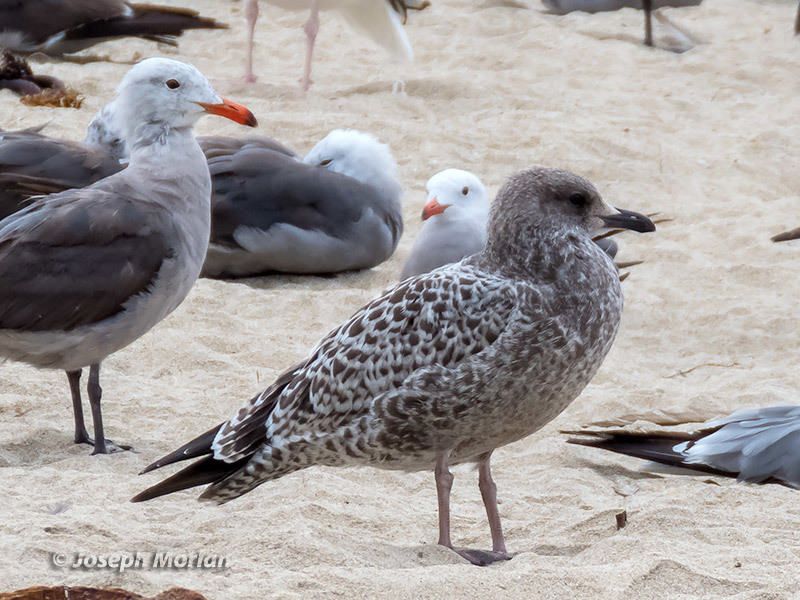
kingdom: Animalia
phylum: Chordata
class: Aves
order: Charadriiformes
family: Laridae
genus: Larus
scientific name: Larus californicus
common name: California gull
